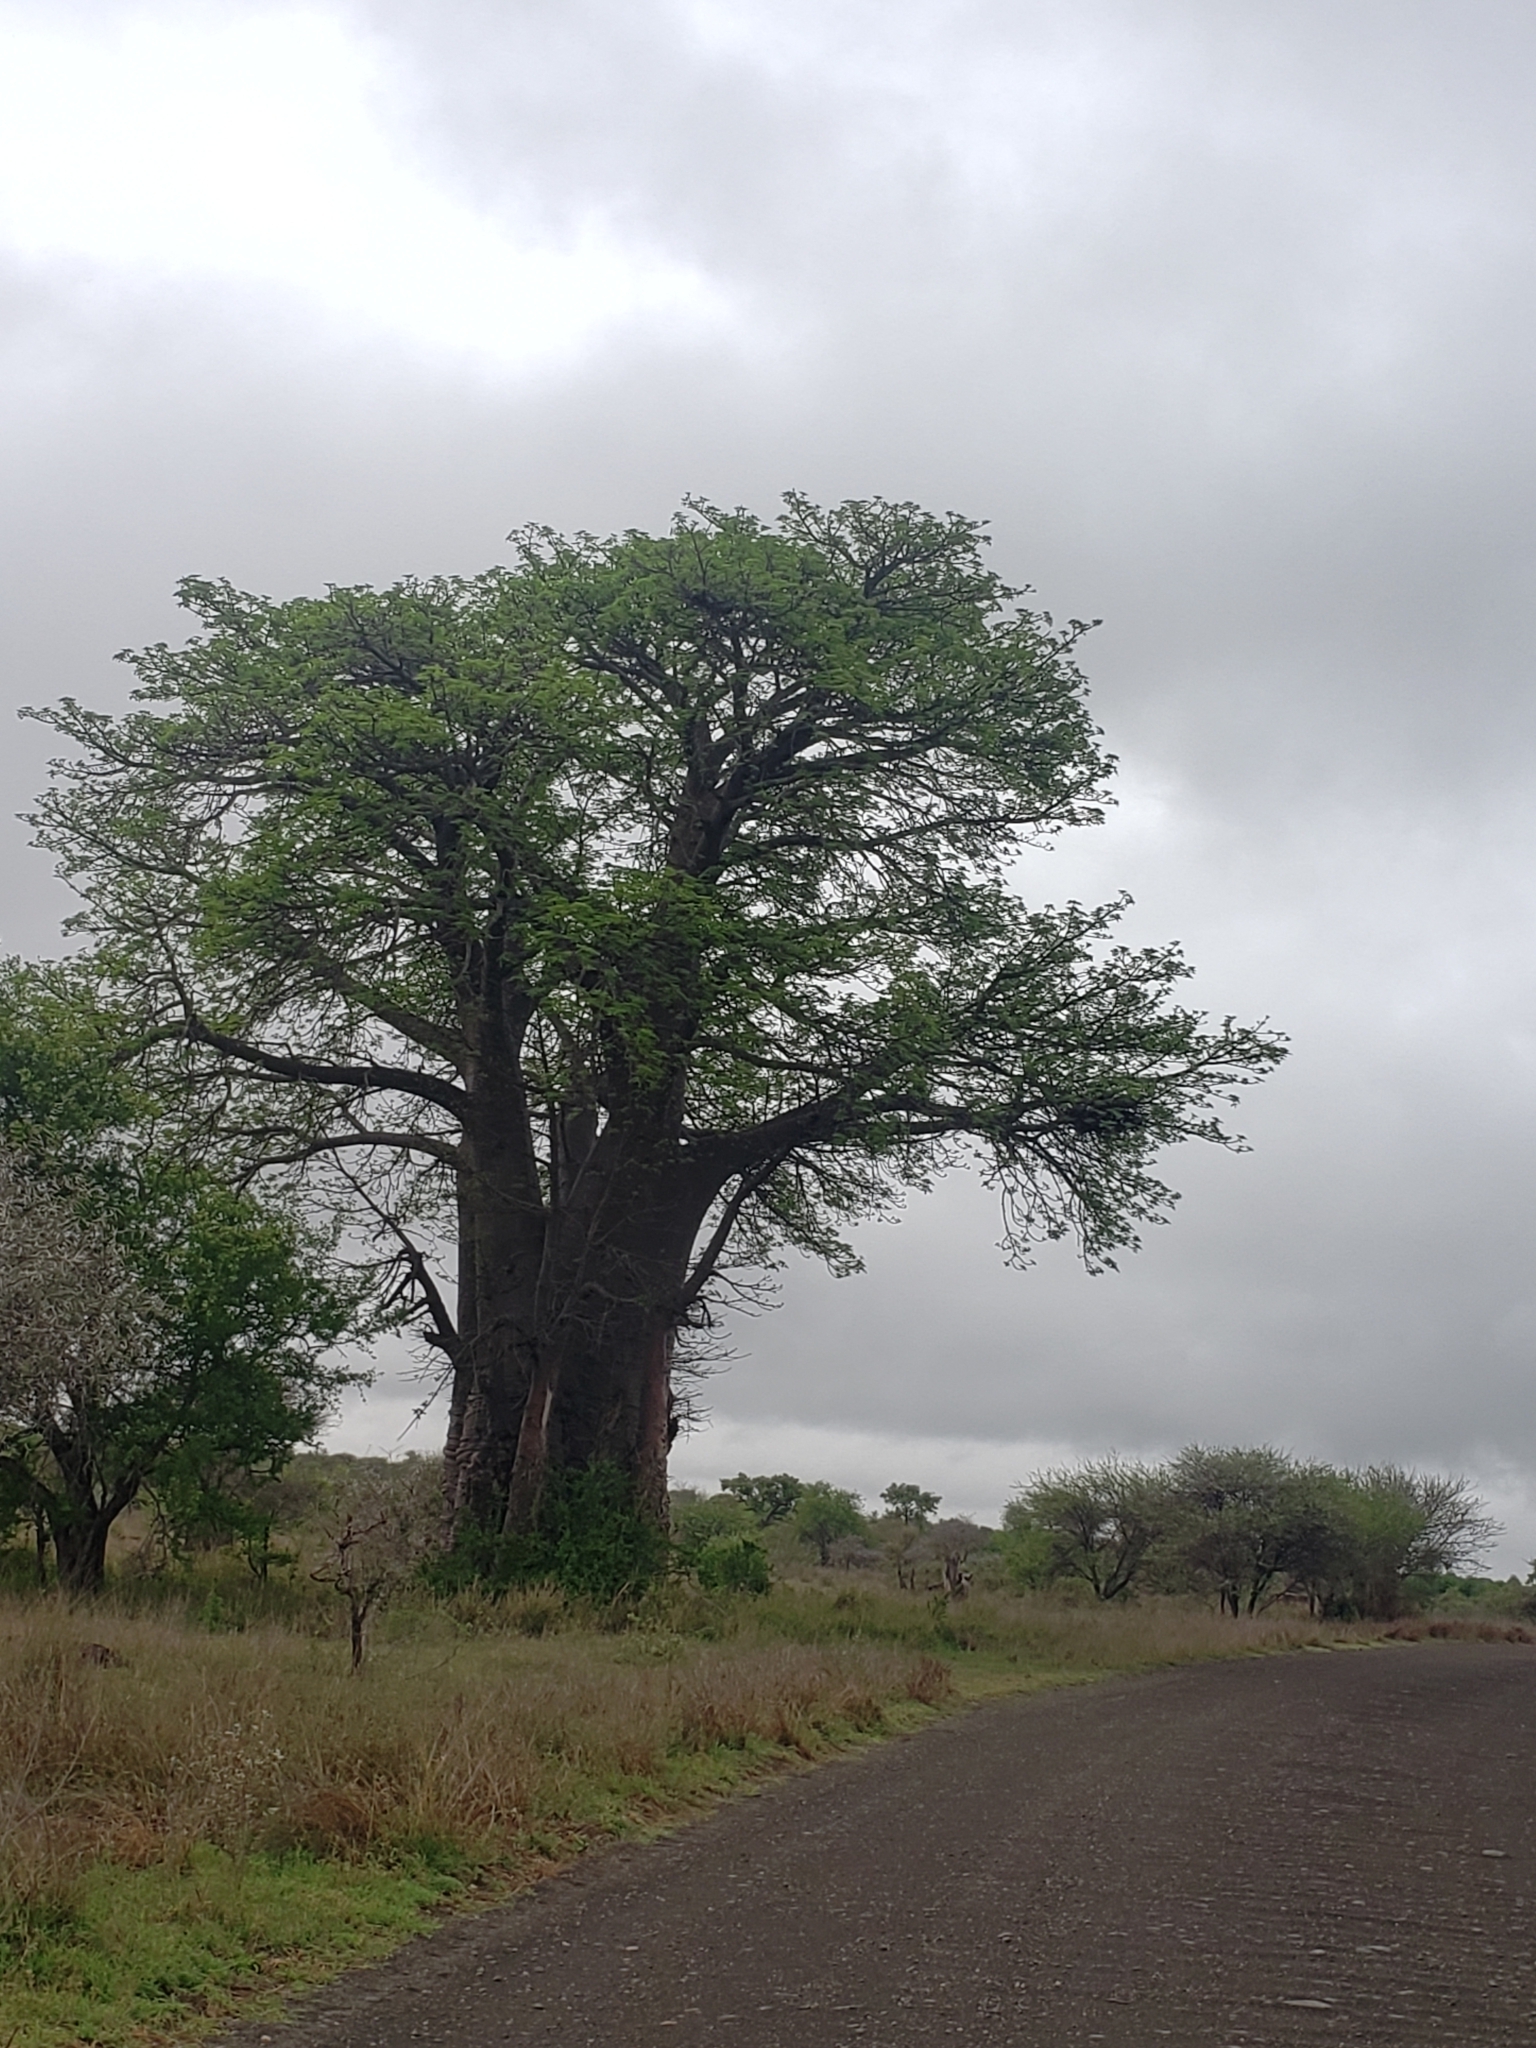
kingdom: Plantae
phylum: Tracheophyta
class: Magnoliopsida
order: Malvales
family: Malvaceae
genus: Adansonia
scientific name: Adansonia digitata
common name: Dead-rat-tree
